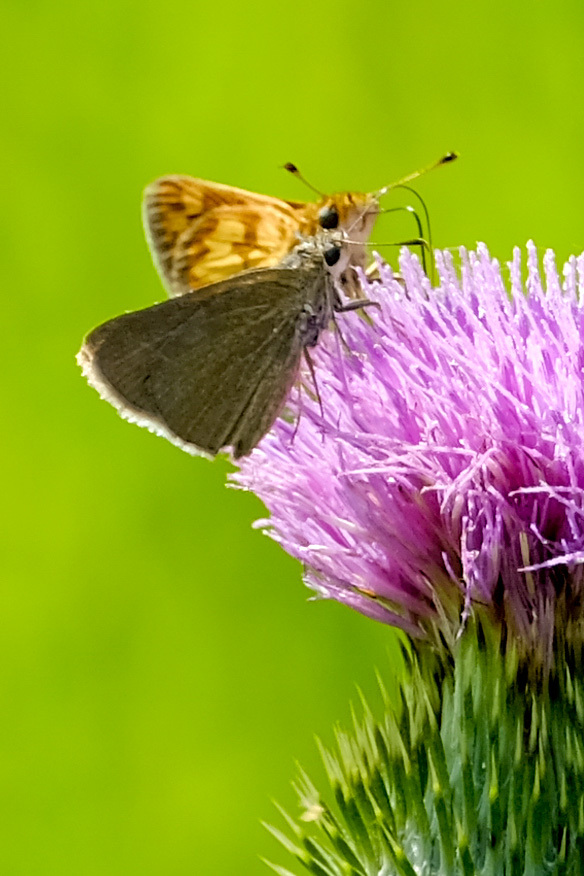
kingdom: Animalia
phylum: Arthropoda
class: Insecta
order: Lepidoptera
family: Hesperiidae
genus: Polites
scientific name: Polites coras
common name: Peck's skipper
